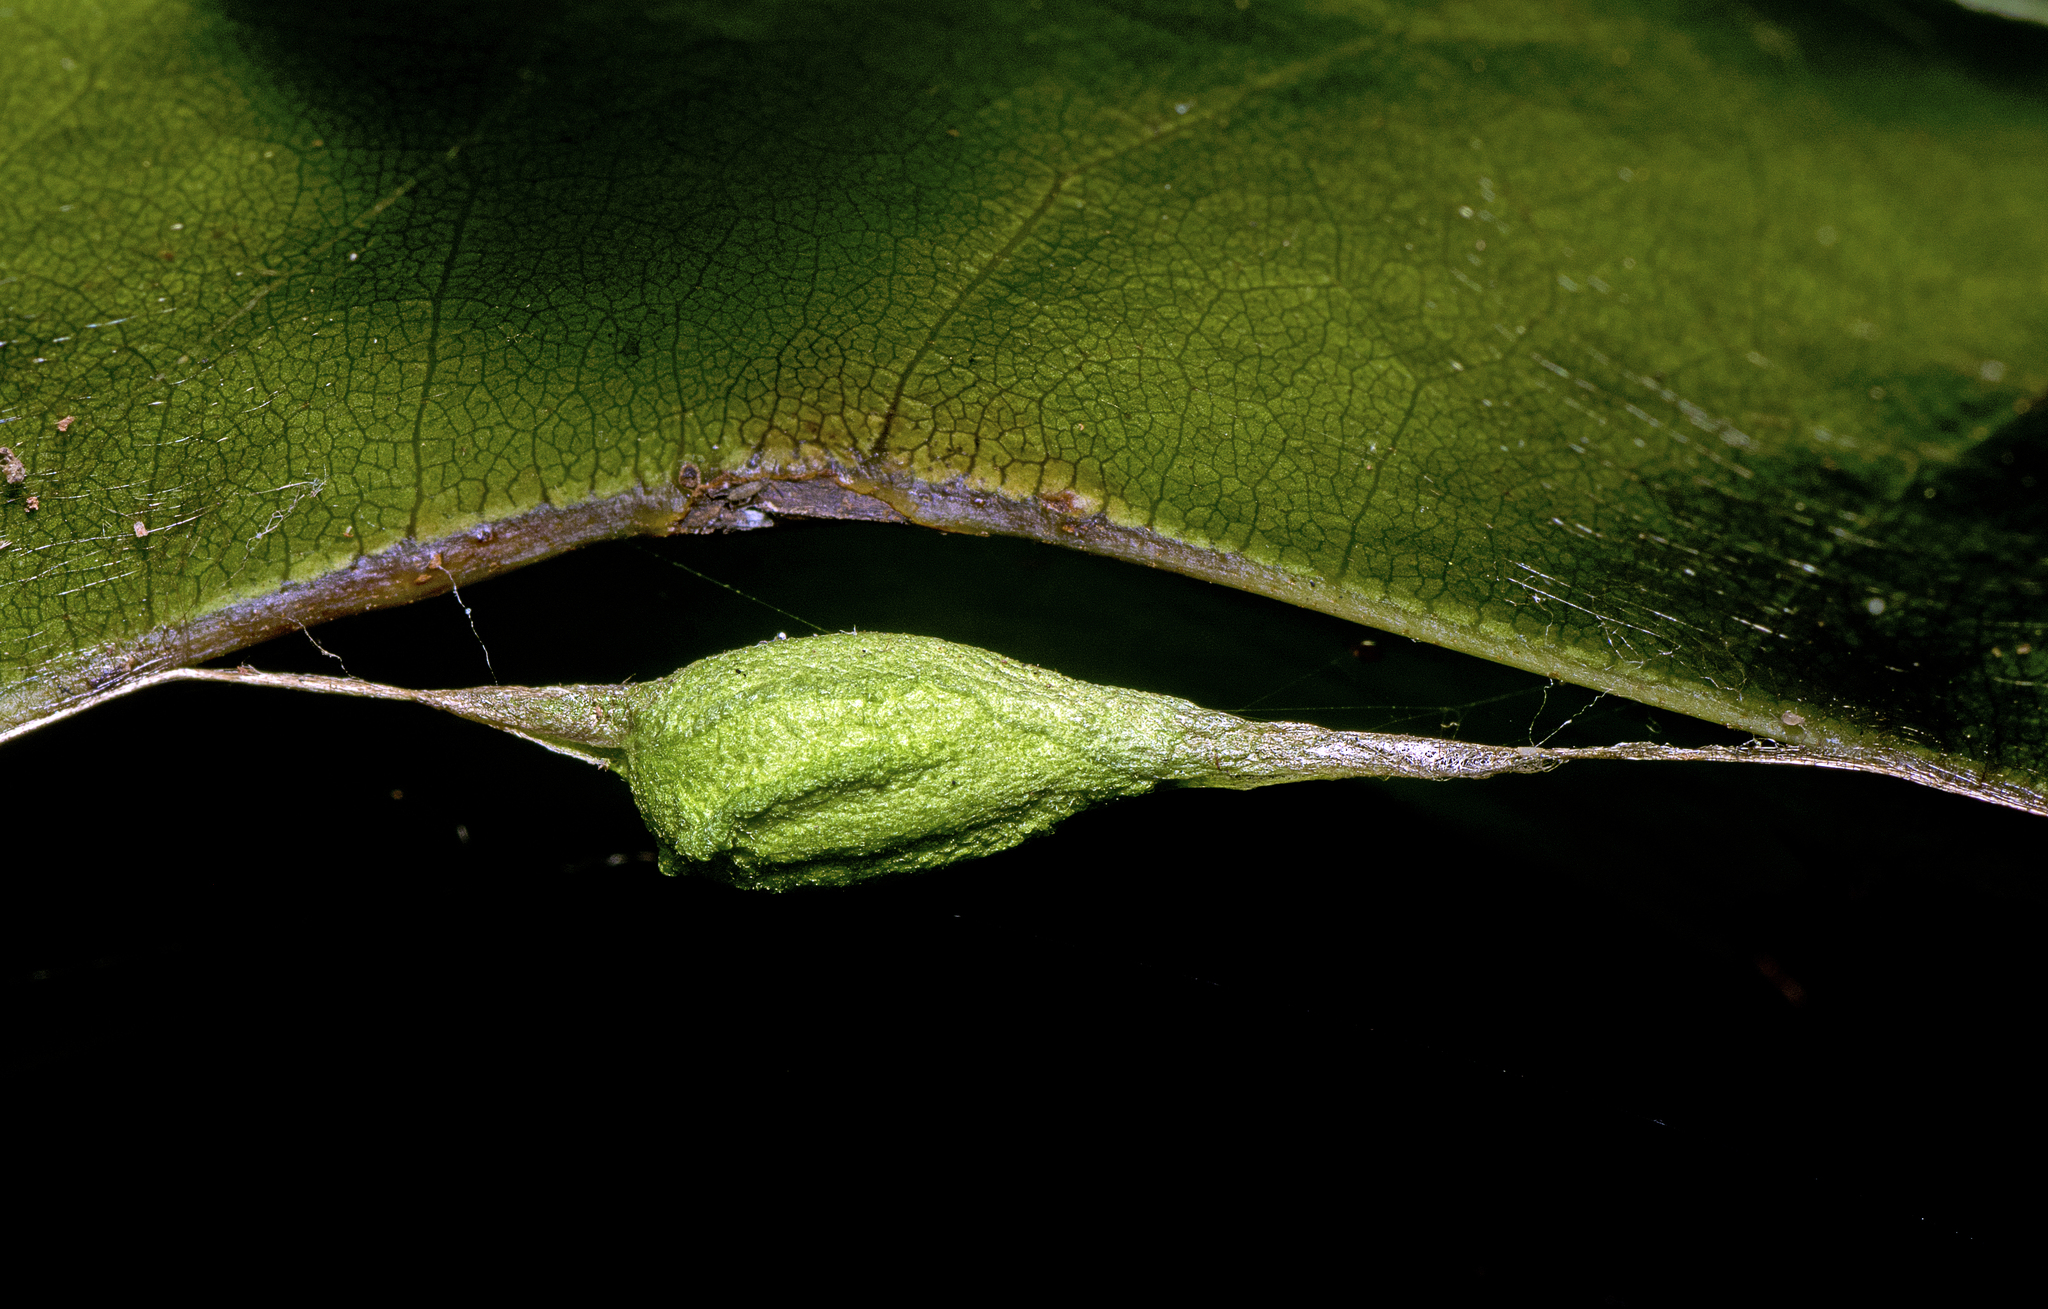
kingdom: Animalia
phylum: Arthropoda
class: Insecta
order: Lepidoptera
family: Bombycidae
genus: Gastridiota
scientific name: Gastridiota adoxima
